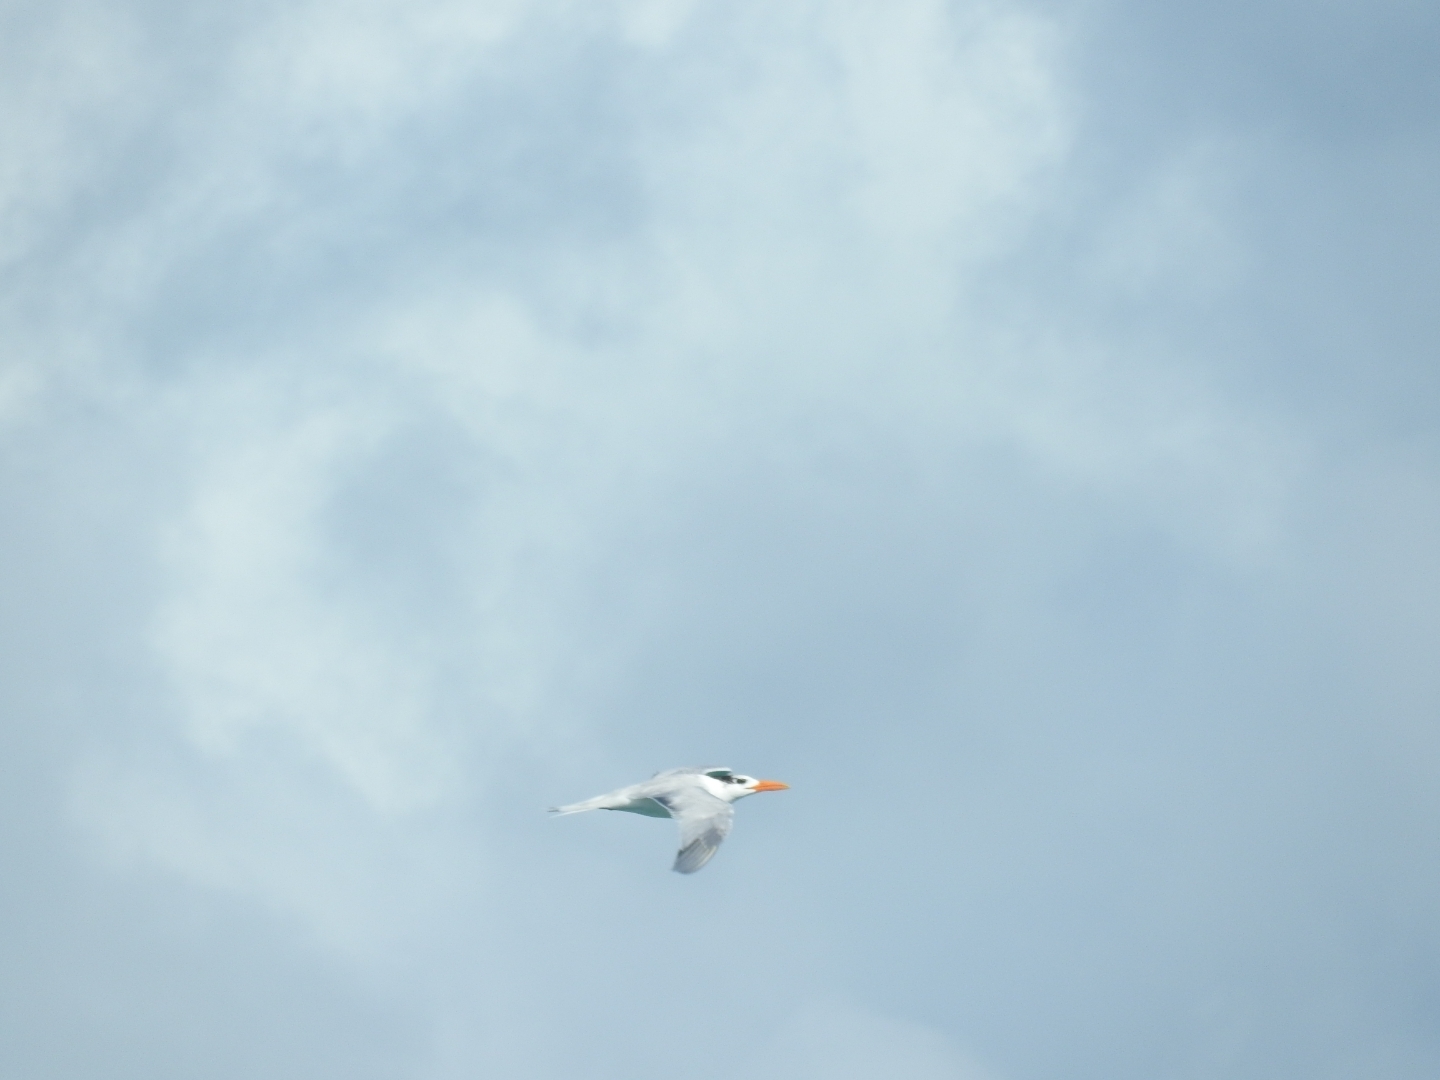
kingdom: Animalia
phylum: Chordata
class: Aves
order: Charadriiformes
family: Laridae
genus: Thalasseus
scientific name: Thalasseus maximus
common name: Royal tern
